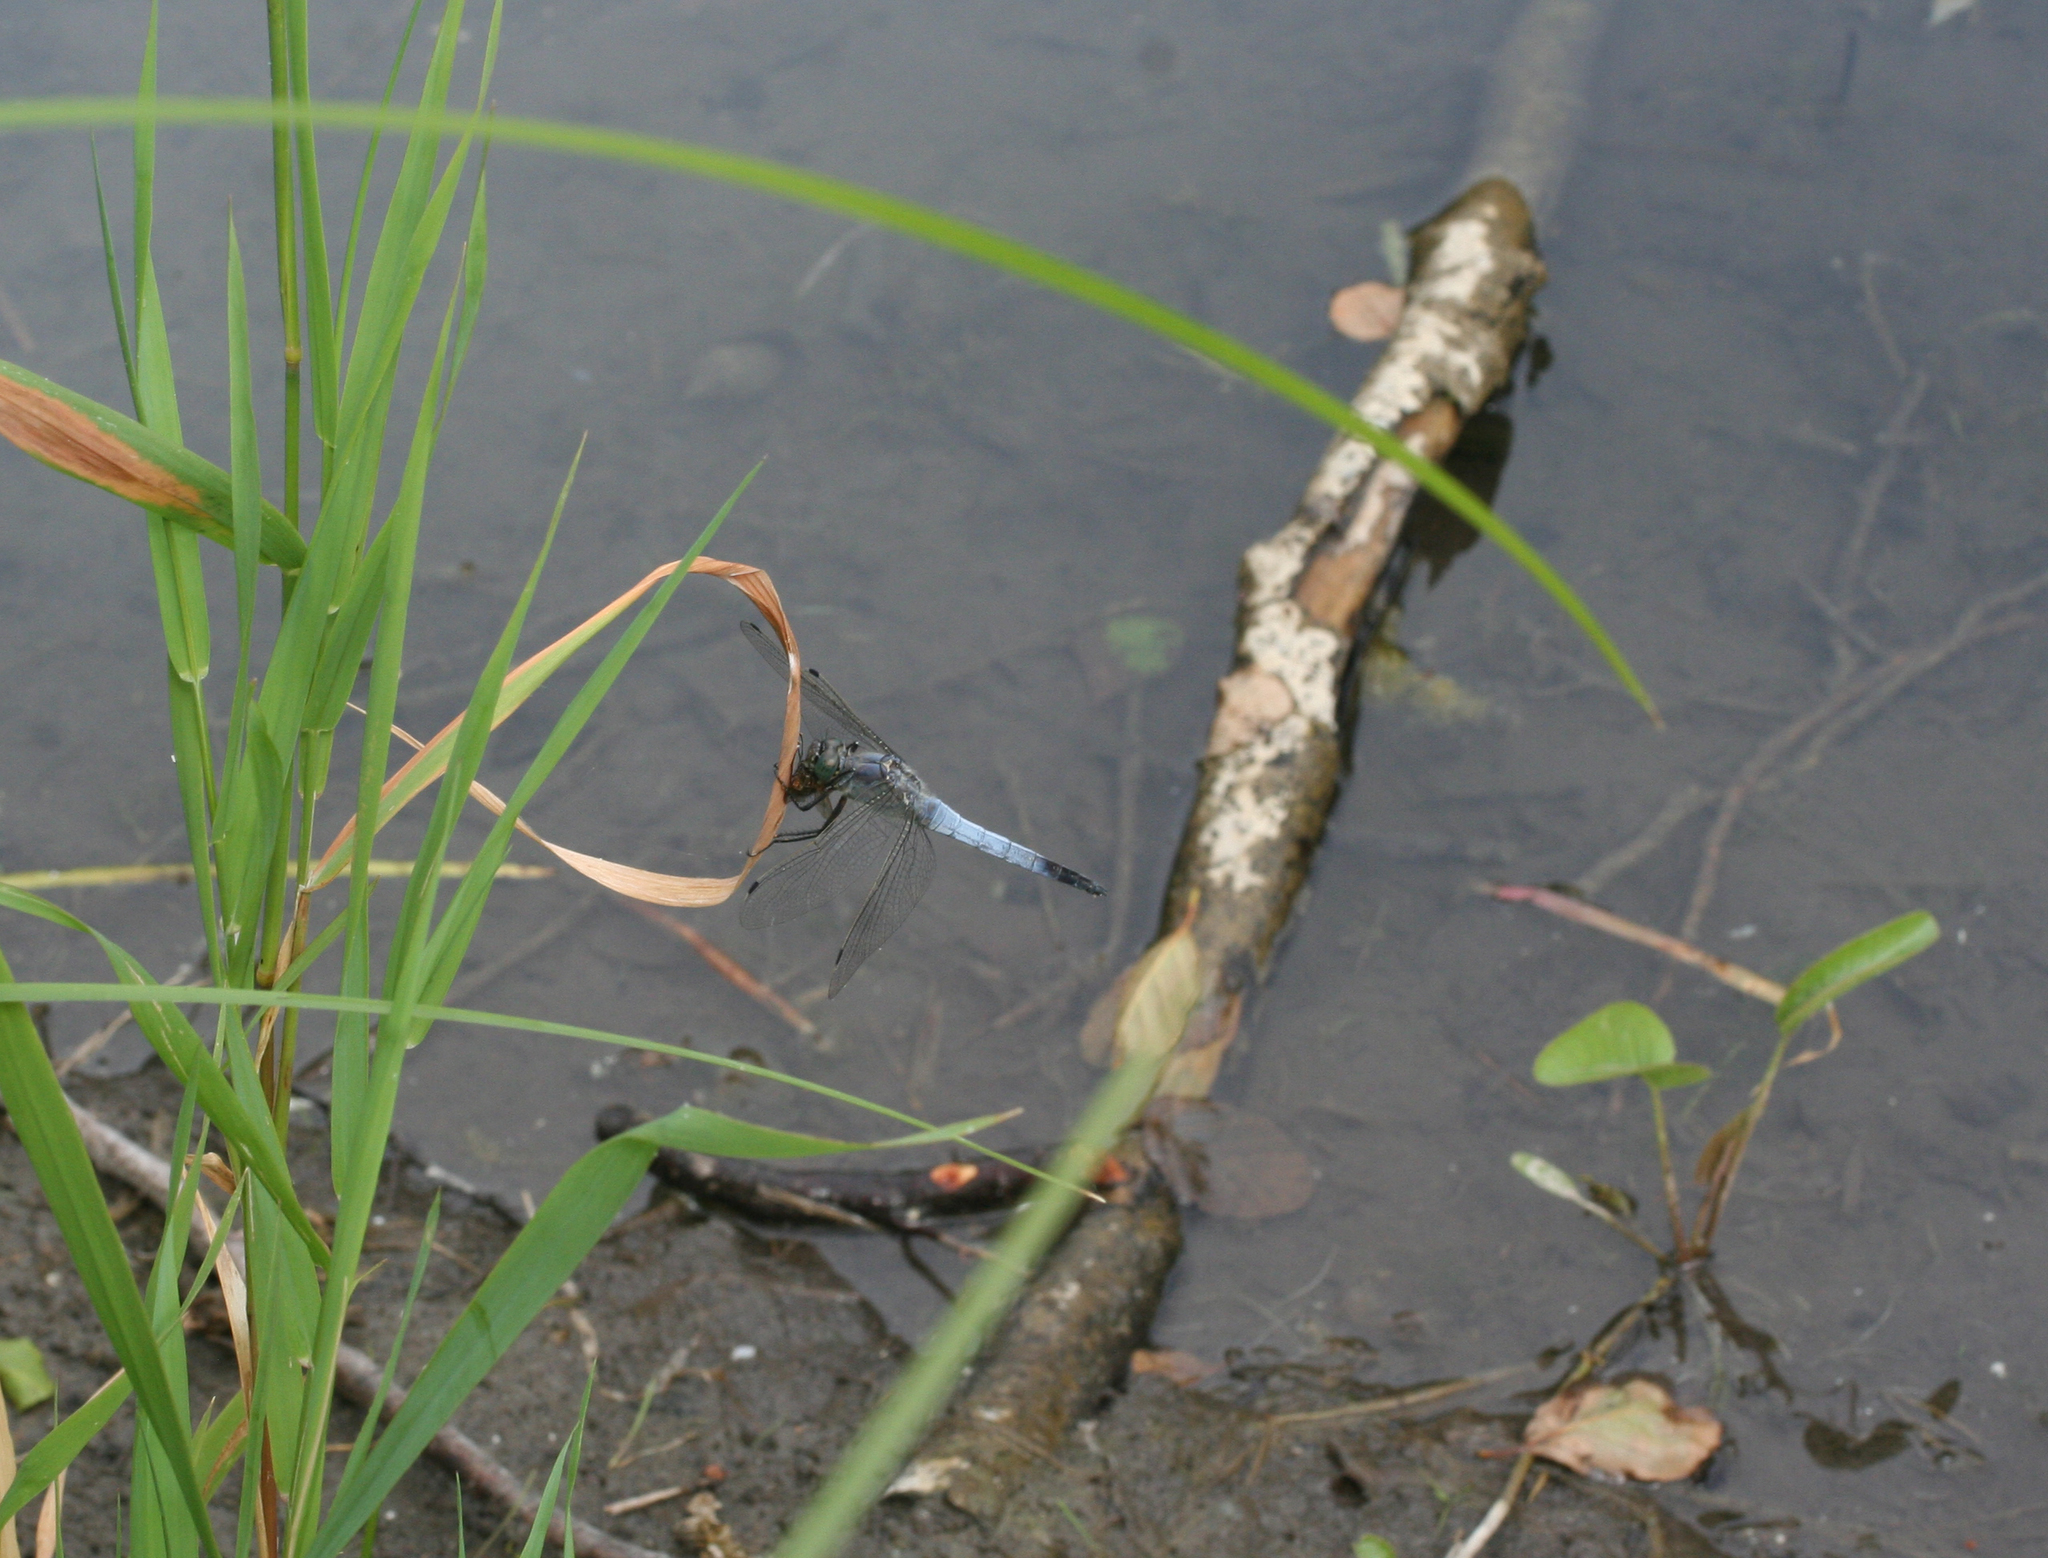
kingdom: Animalia
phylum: Arthropoda
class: Insecta
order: Odonata
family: Libellulidae
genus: Orthetrum
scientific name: Orthetrum cancellatum
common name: Black-tailed skimmer
